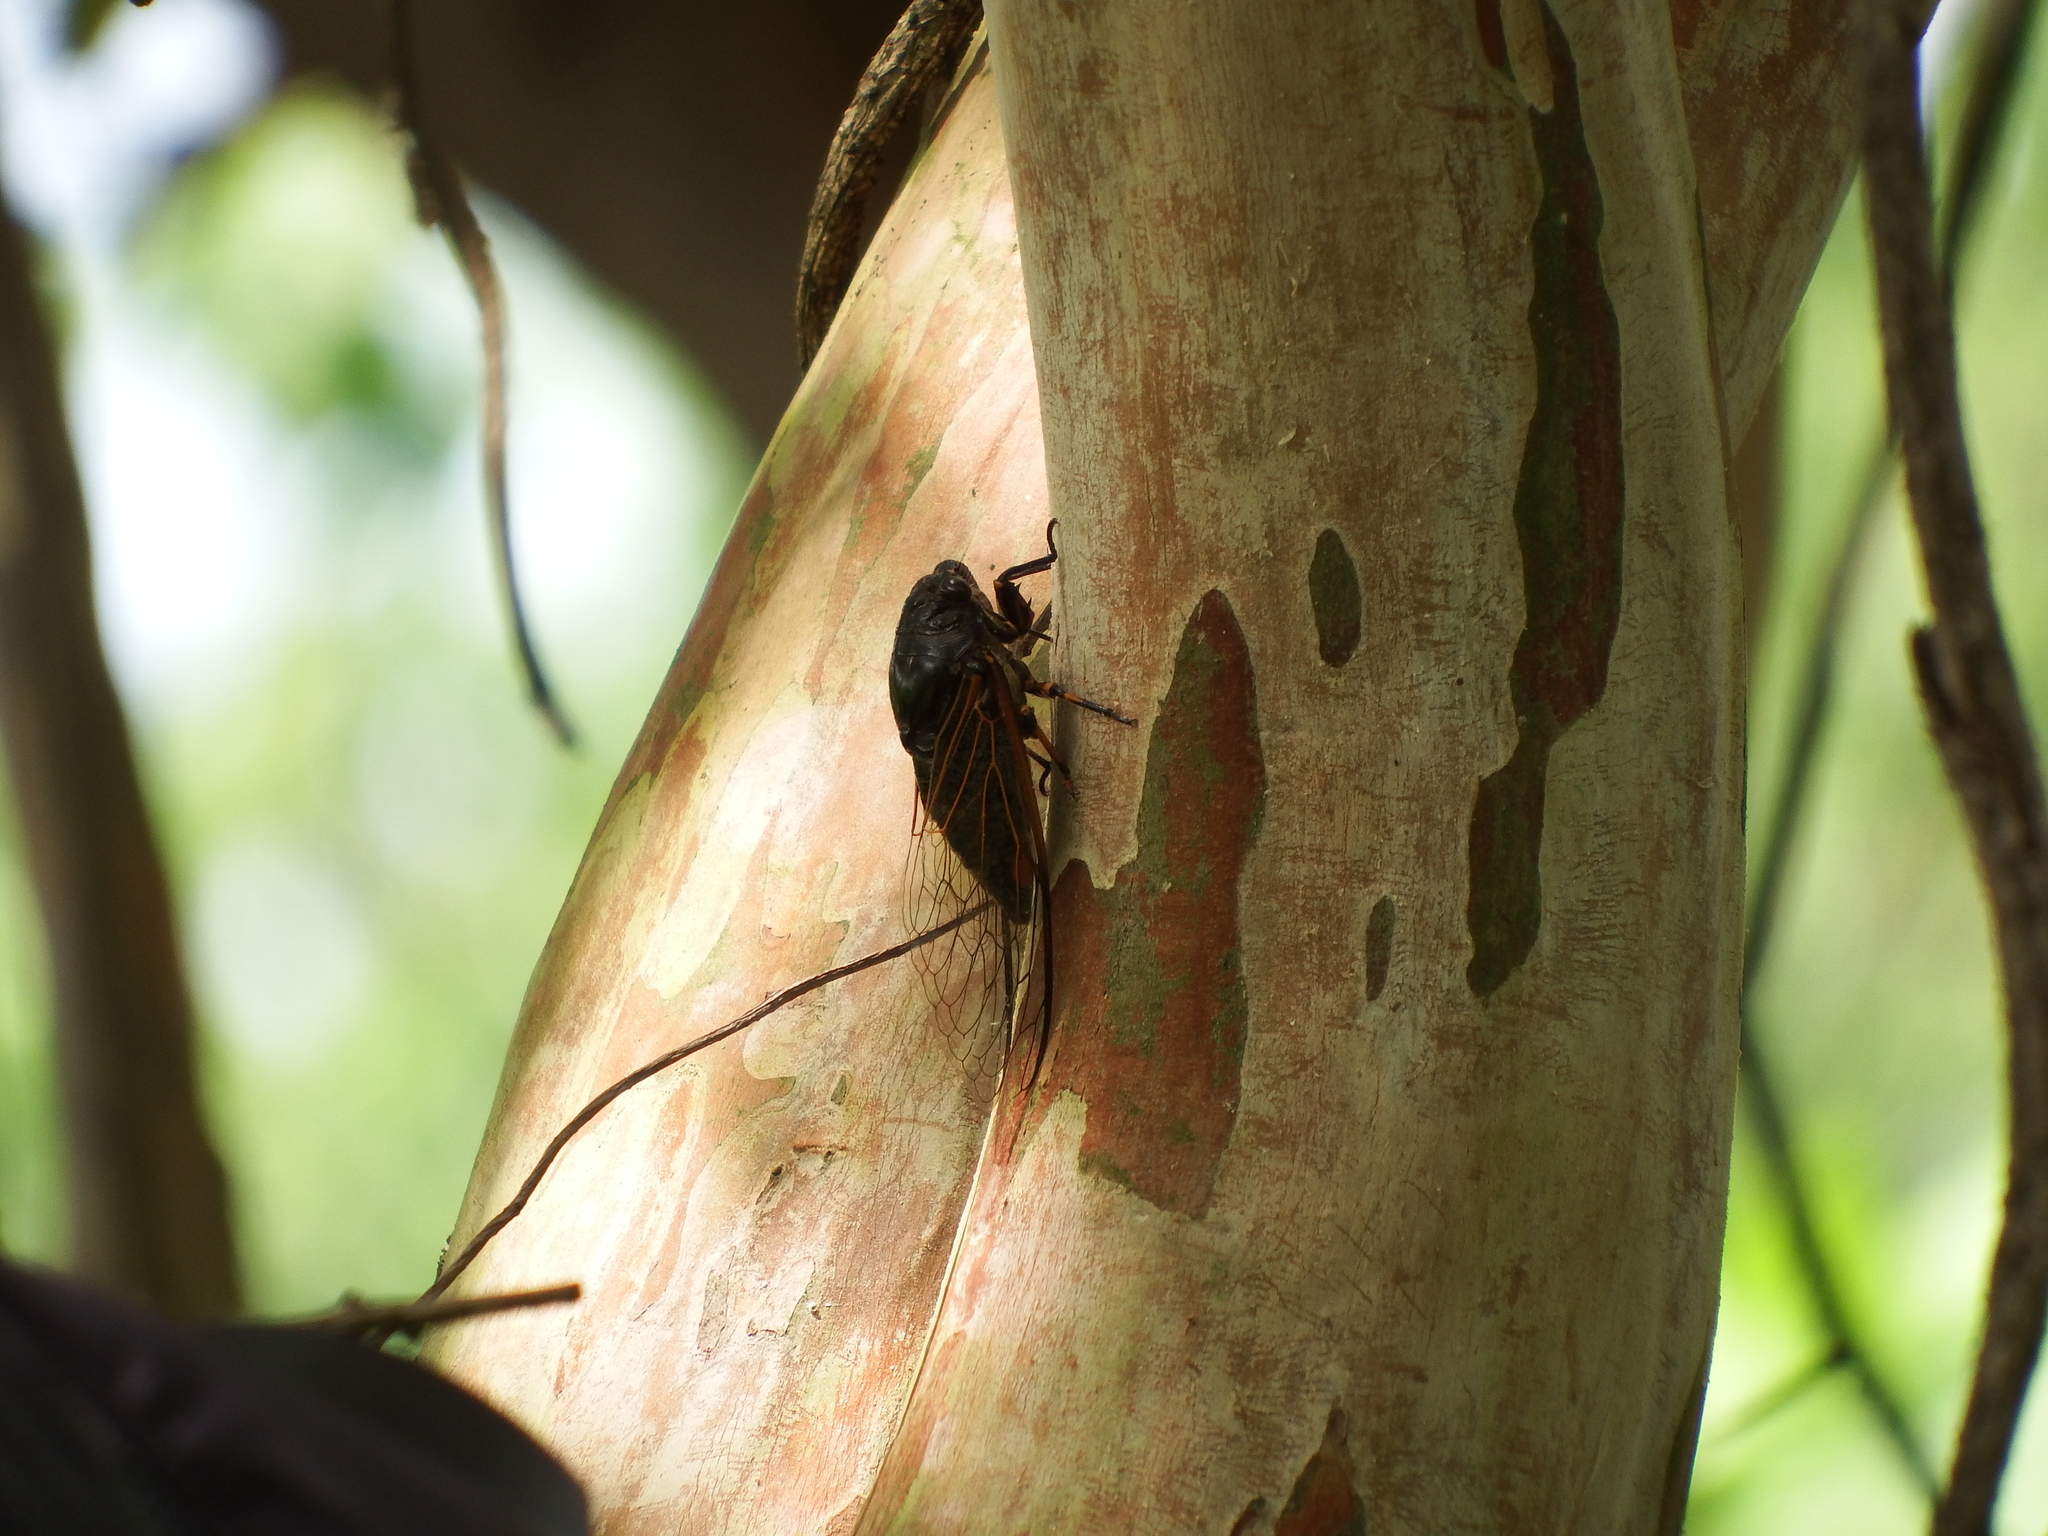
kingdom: Animalia
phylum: Arthropoda
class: Insecta
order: Hemiptera
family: Cicadidae
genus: Cryptotympana
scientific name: Cryptotympana atrata
